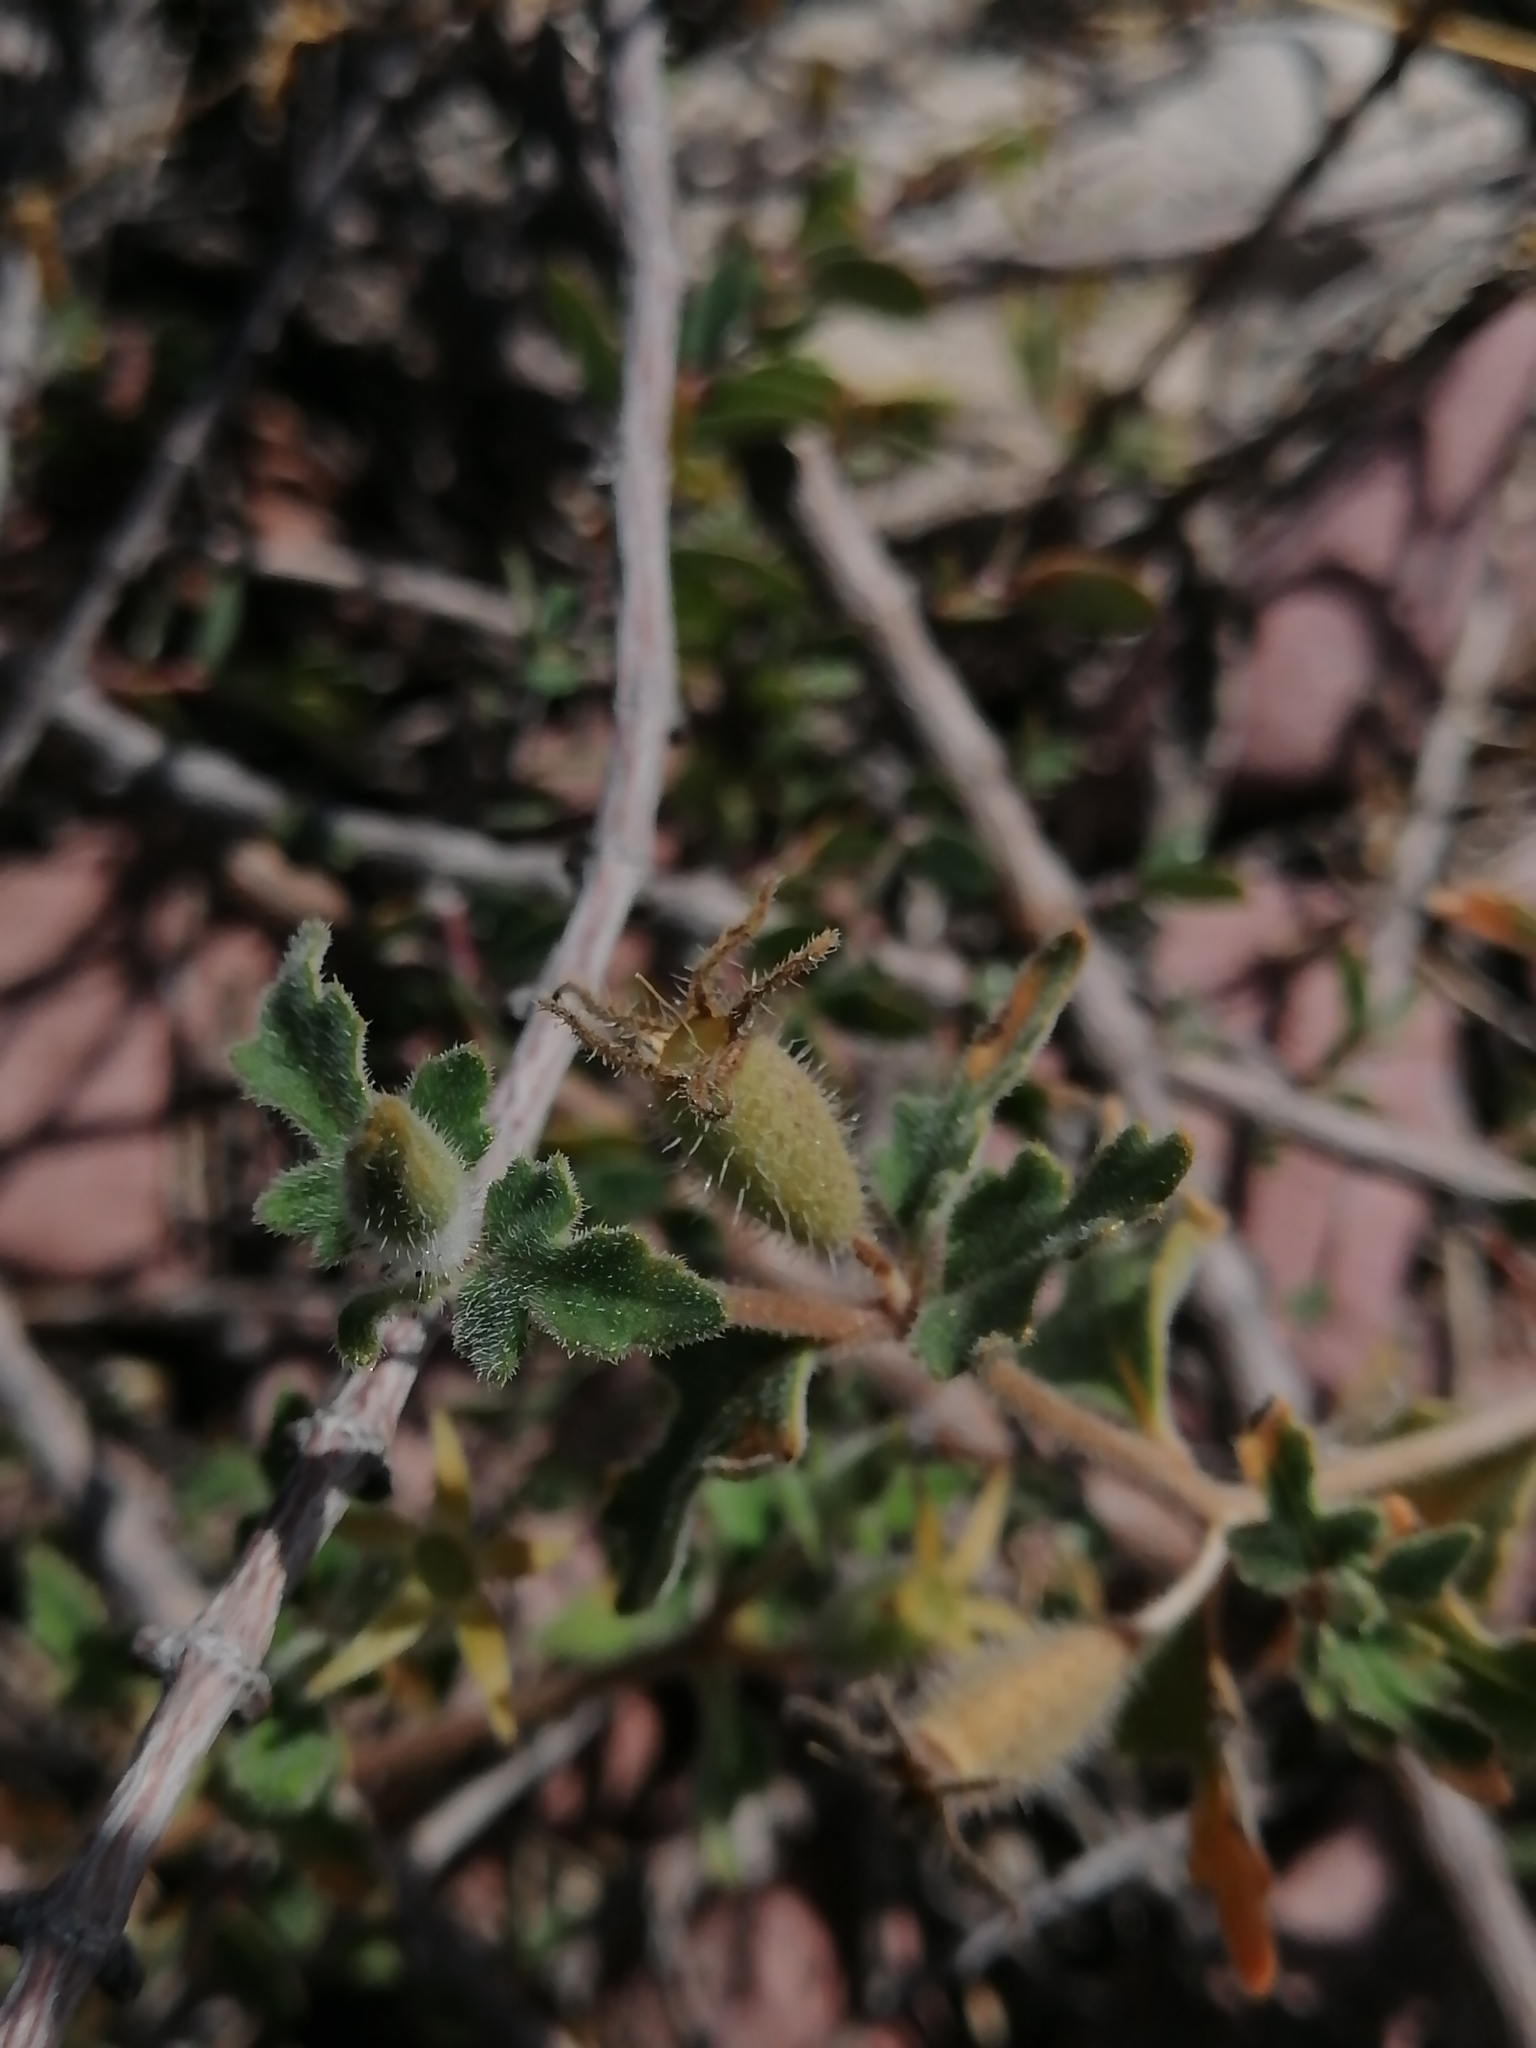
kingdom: Plantae
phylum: Tracheophyta
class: Magnoliopsida
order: Cornales
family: Loasaceae
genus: Mentzelia
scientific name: Mentzelia adhaerens
